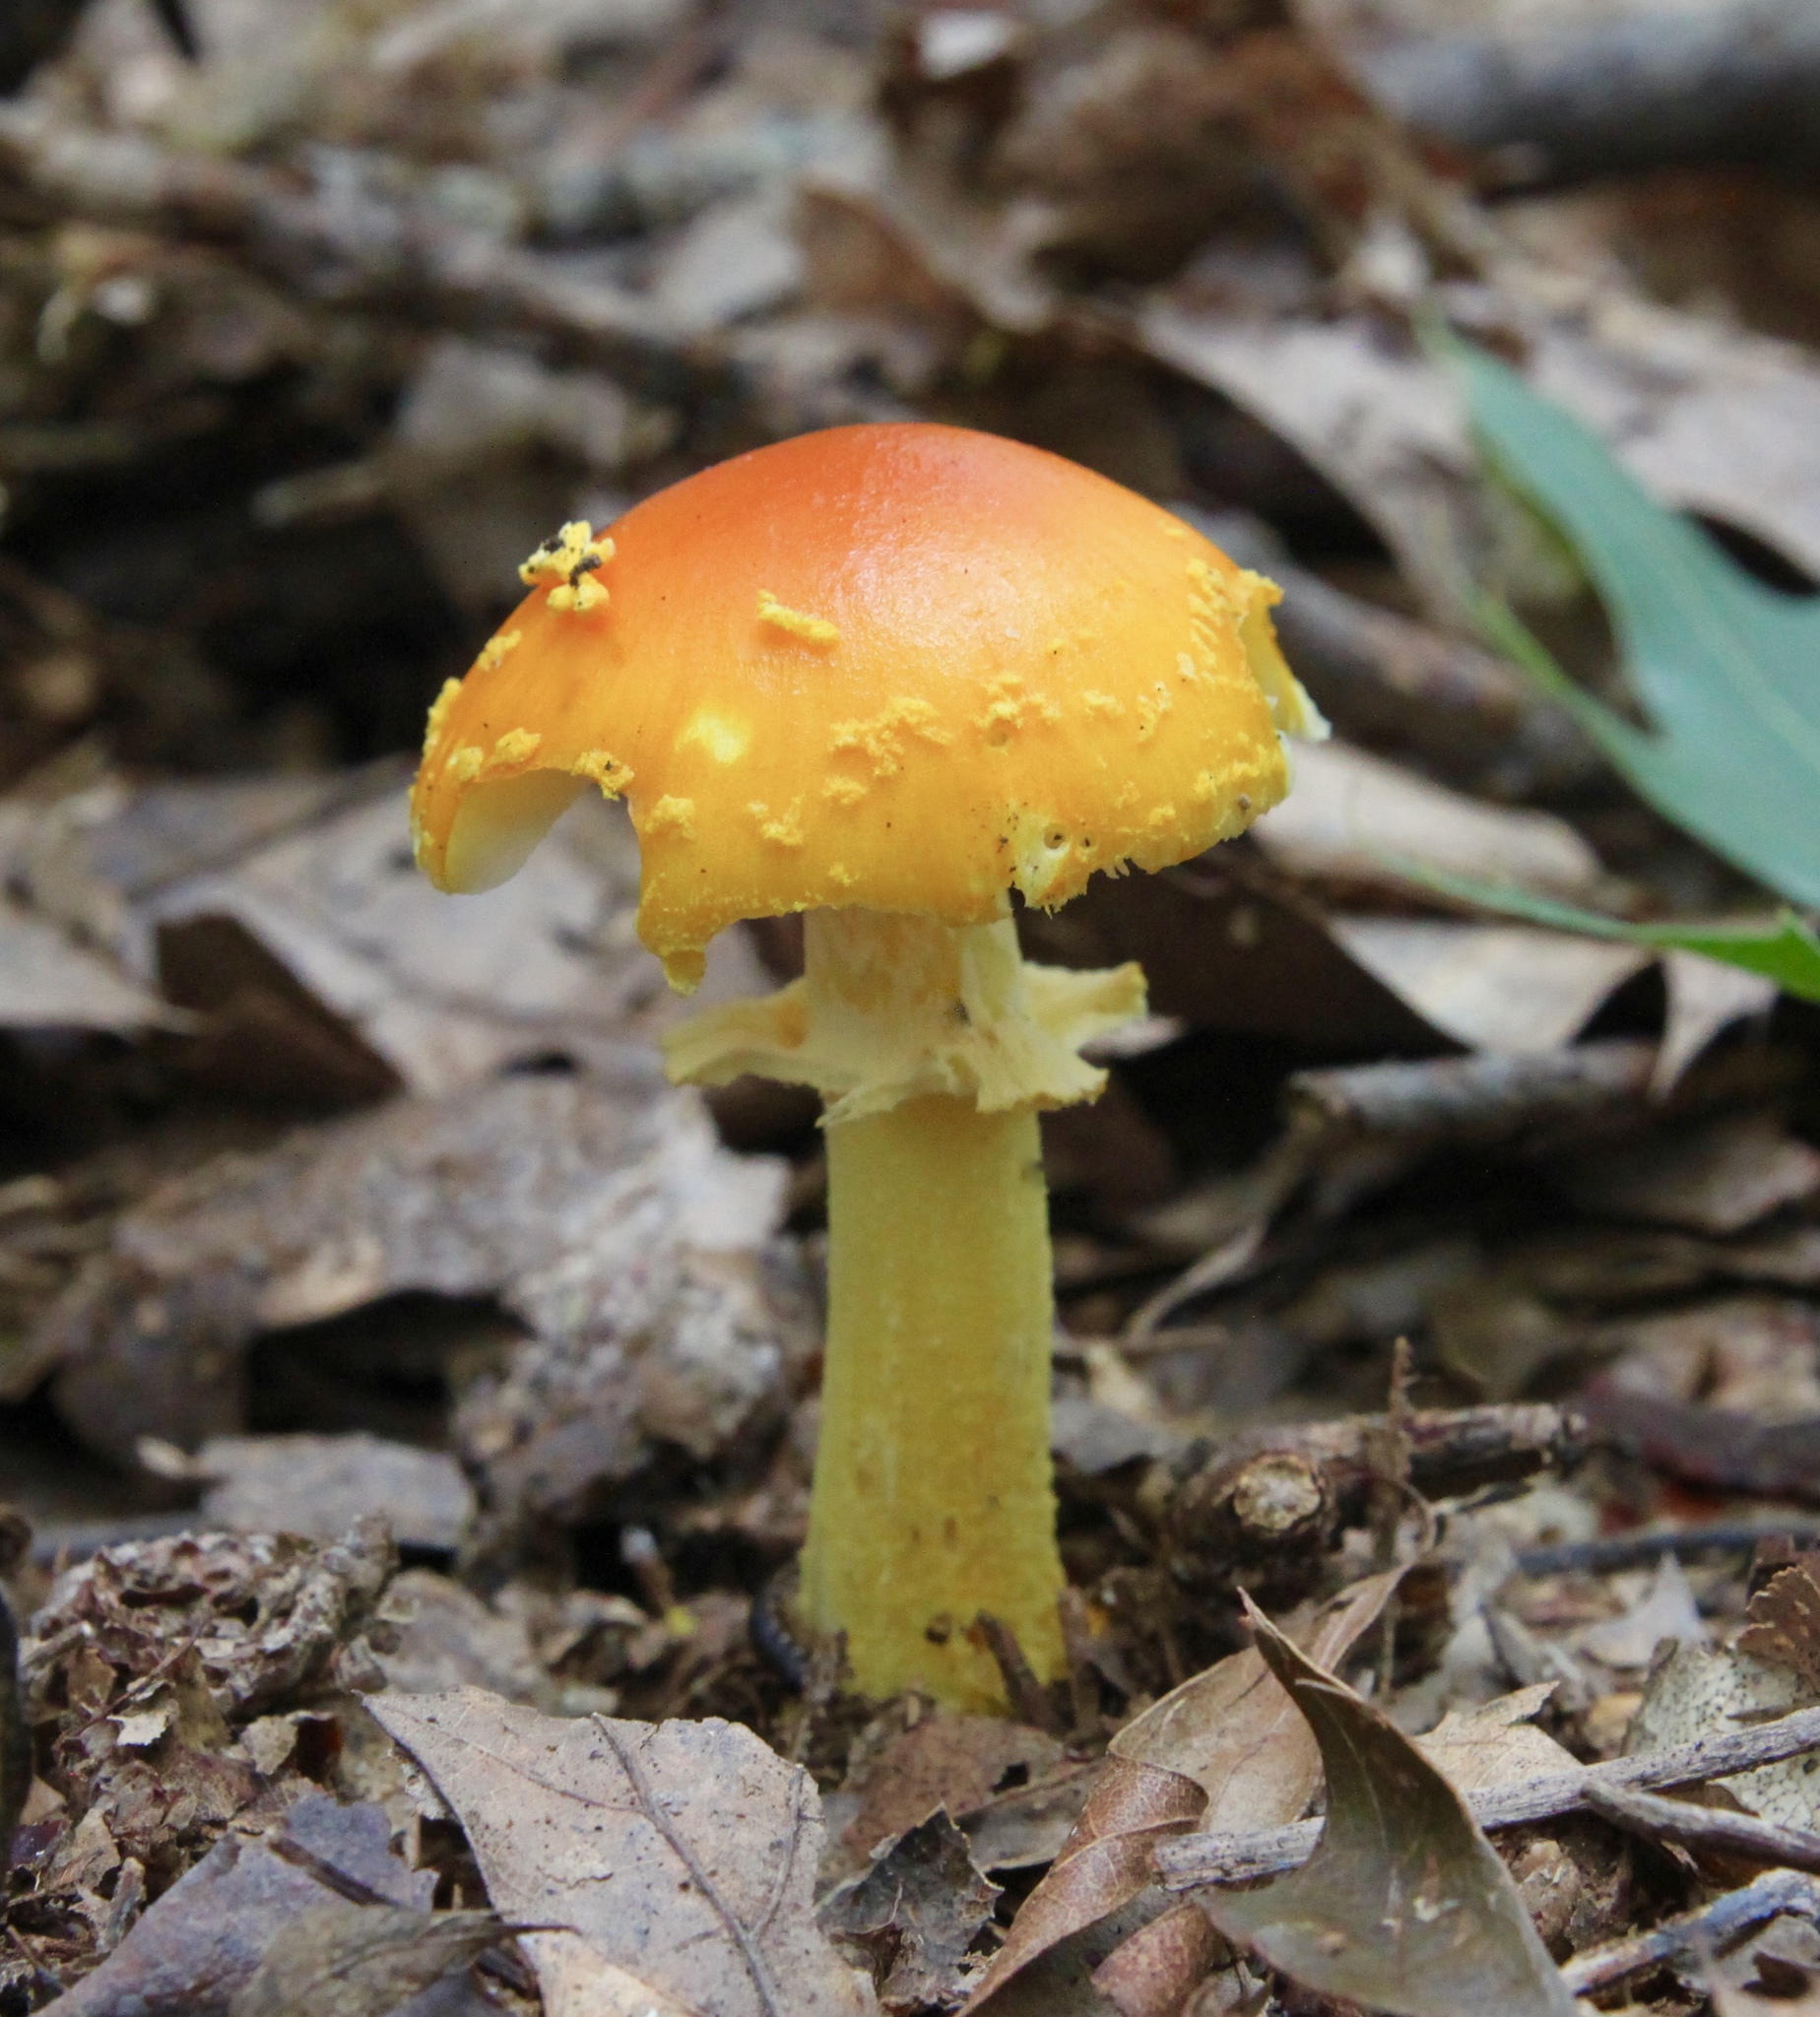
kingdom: Fungi
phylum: Basidiomycota
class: Agaricomycetes
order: Agaricales
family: Amanitaceae
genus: Amanita
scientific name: Amanita flavoconia
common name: Yellow patches
